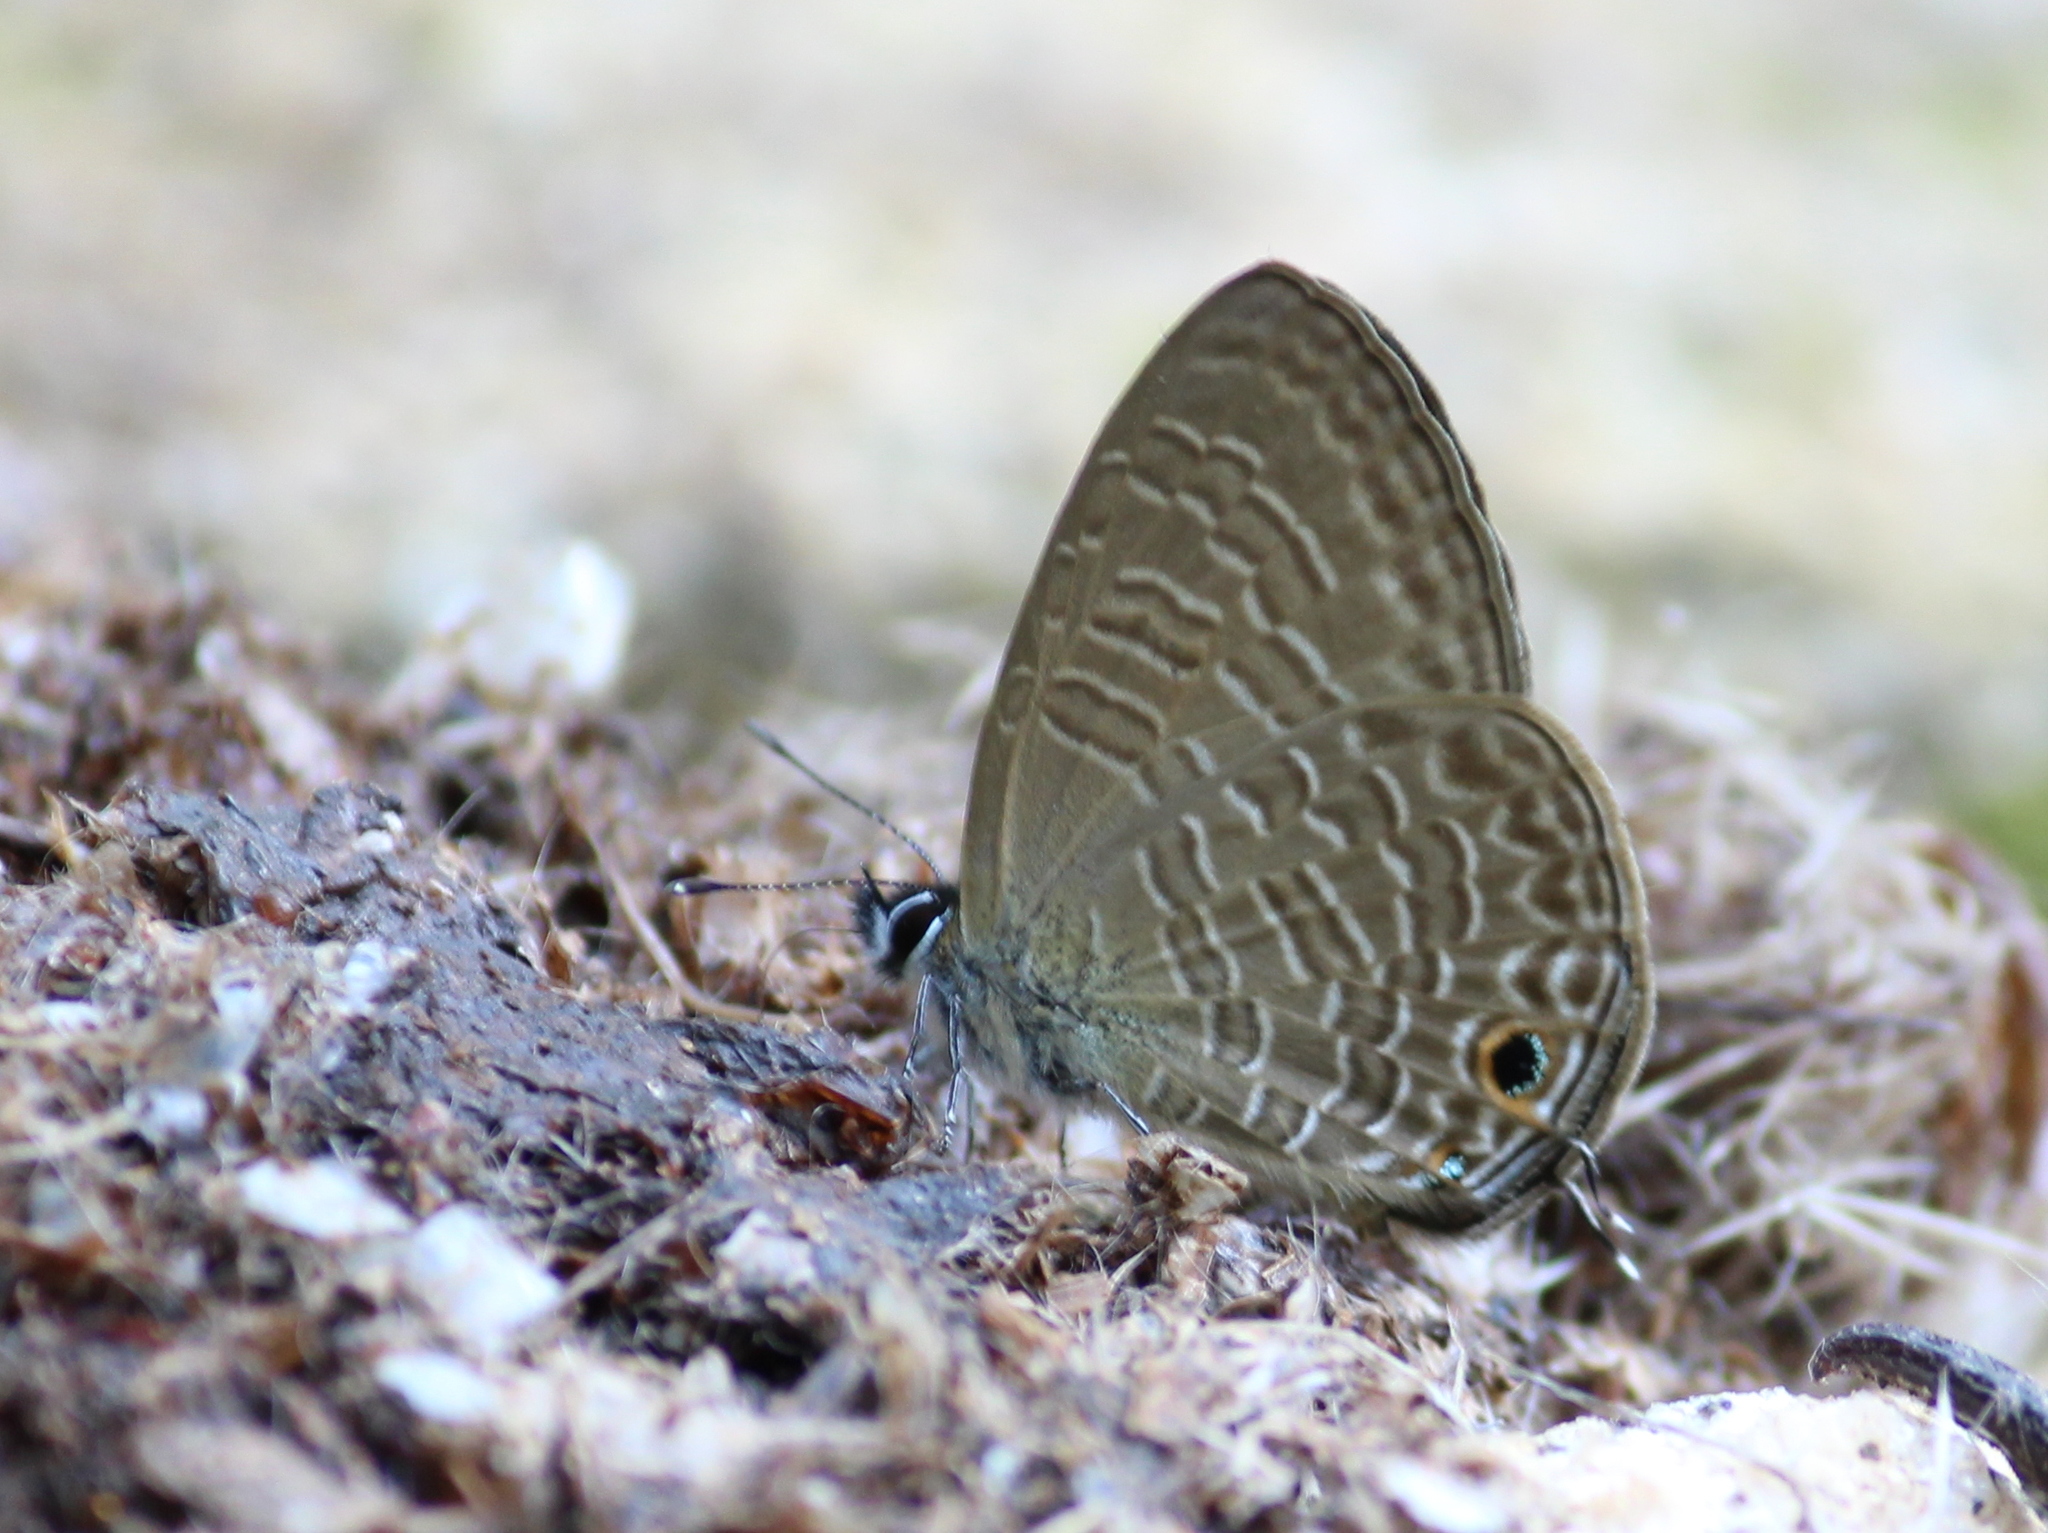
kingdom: Animalia
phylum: Arthropoda
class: Insecta
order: Lepidoptera
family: Lycaenidae
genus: Nacaduba
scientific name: Nacaduba berenice
